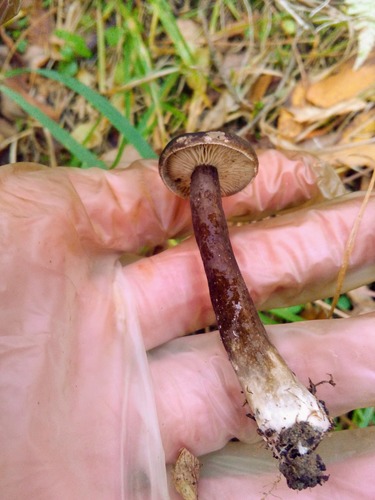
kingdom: Fungi
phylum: Basidiomycota
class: Agaricomycetes
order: Russulales
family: Russulaceae
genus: Lactarius
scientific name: Lactarius
